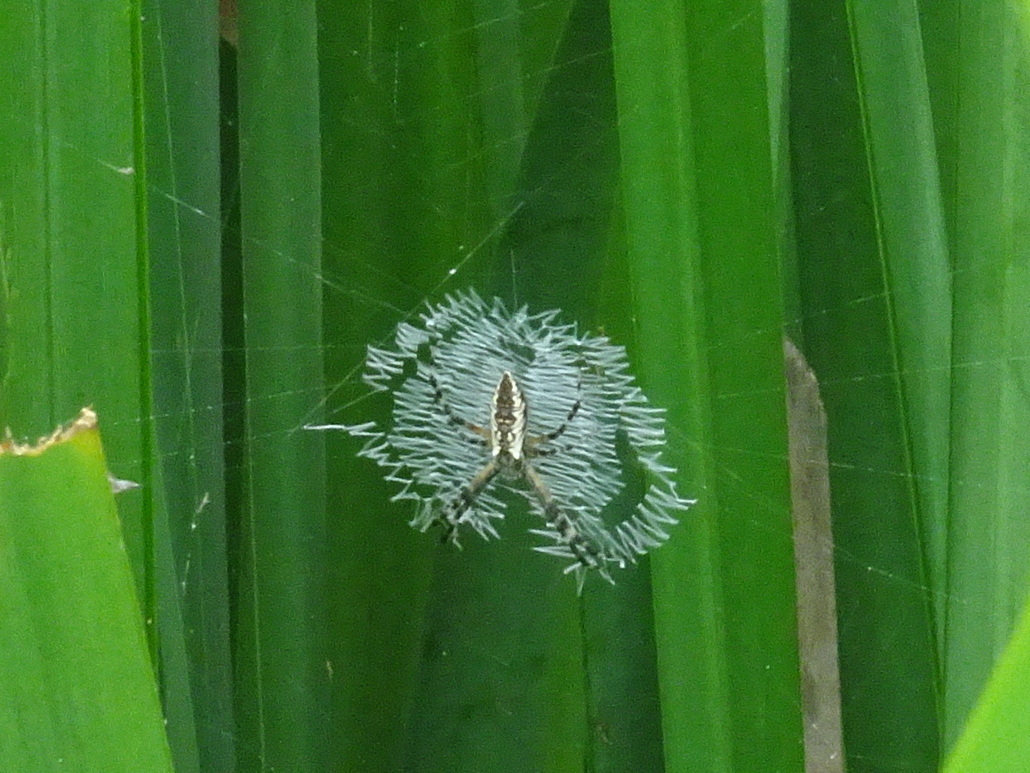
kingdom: Animalia
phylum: Arthropoda
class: Arachnida
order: Araneae
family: Araneidae
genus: Argiope
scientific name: Argiope aurantia
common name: Orb weavers
